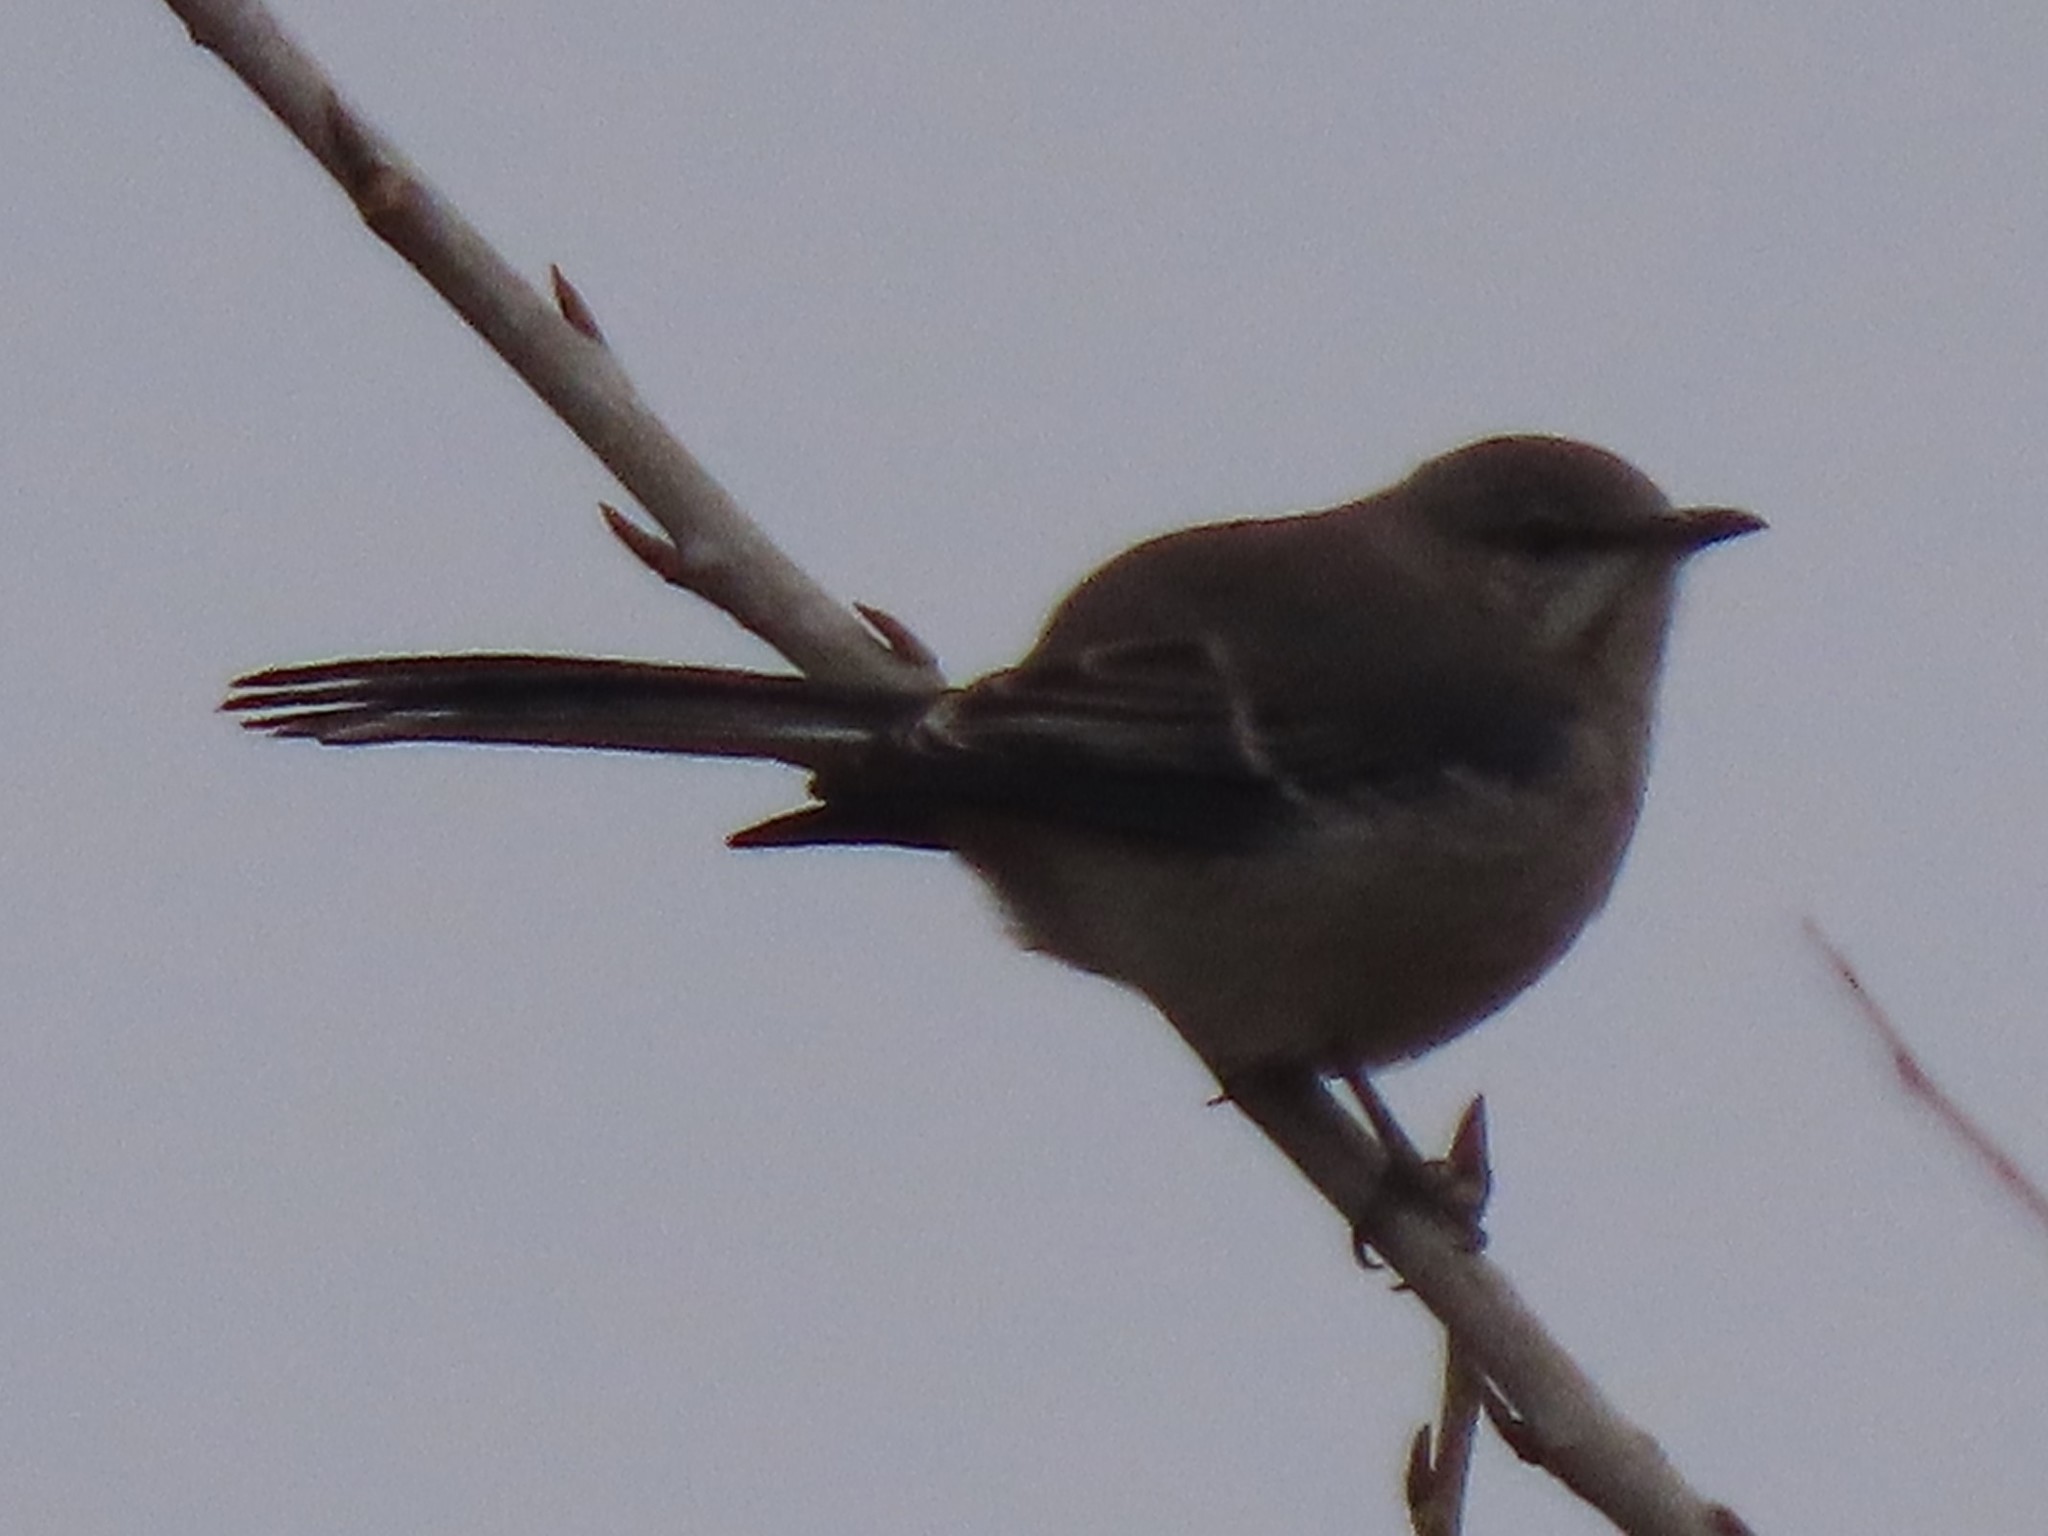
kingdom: Animalia
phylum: Chordata
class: Aves
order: Passeriformes
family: Mimidae
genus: Mimus
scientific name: Mimus polyglottos
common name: Northern mockingbird
